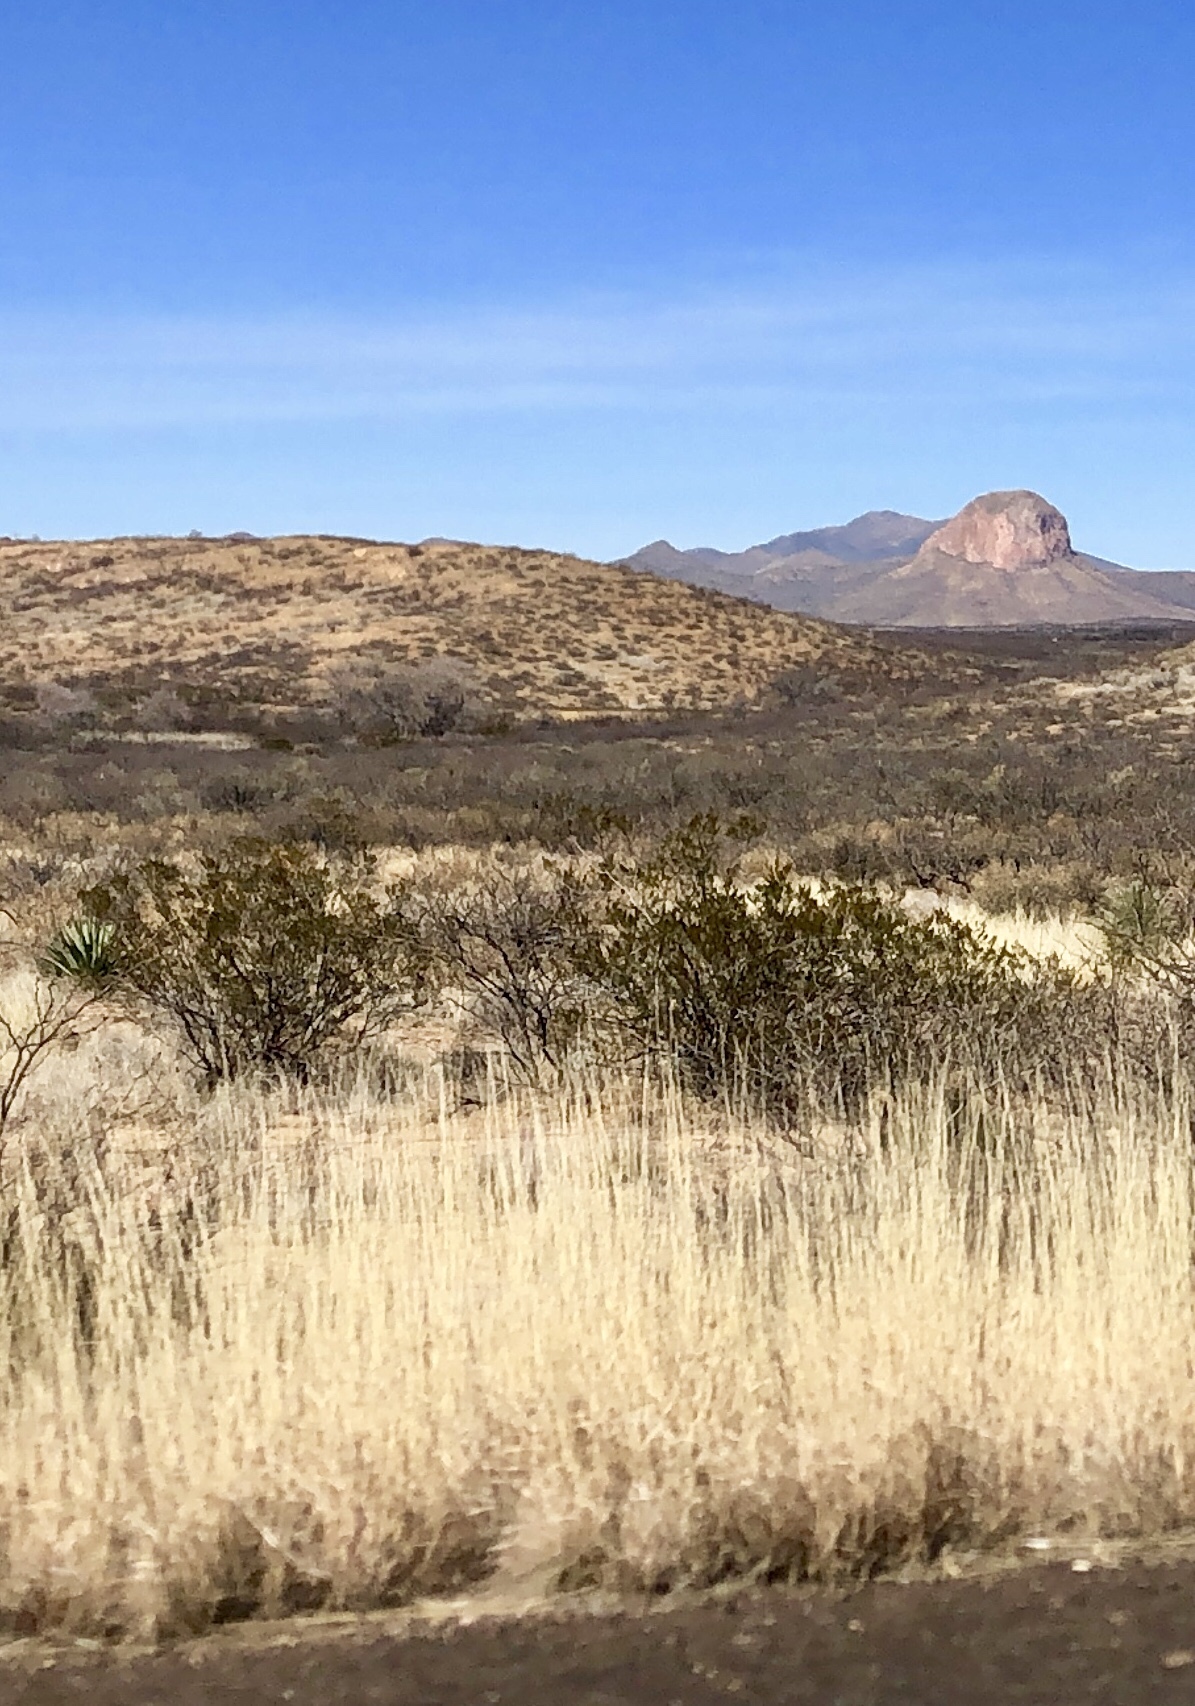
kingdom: Plantae
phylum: Tracheophyta
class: Magnoliopsida
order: Zygophyllales
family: Zygophyllaceae
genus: Larrea
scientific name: Larrea tridentata
